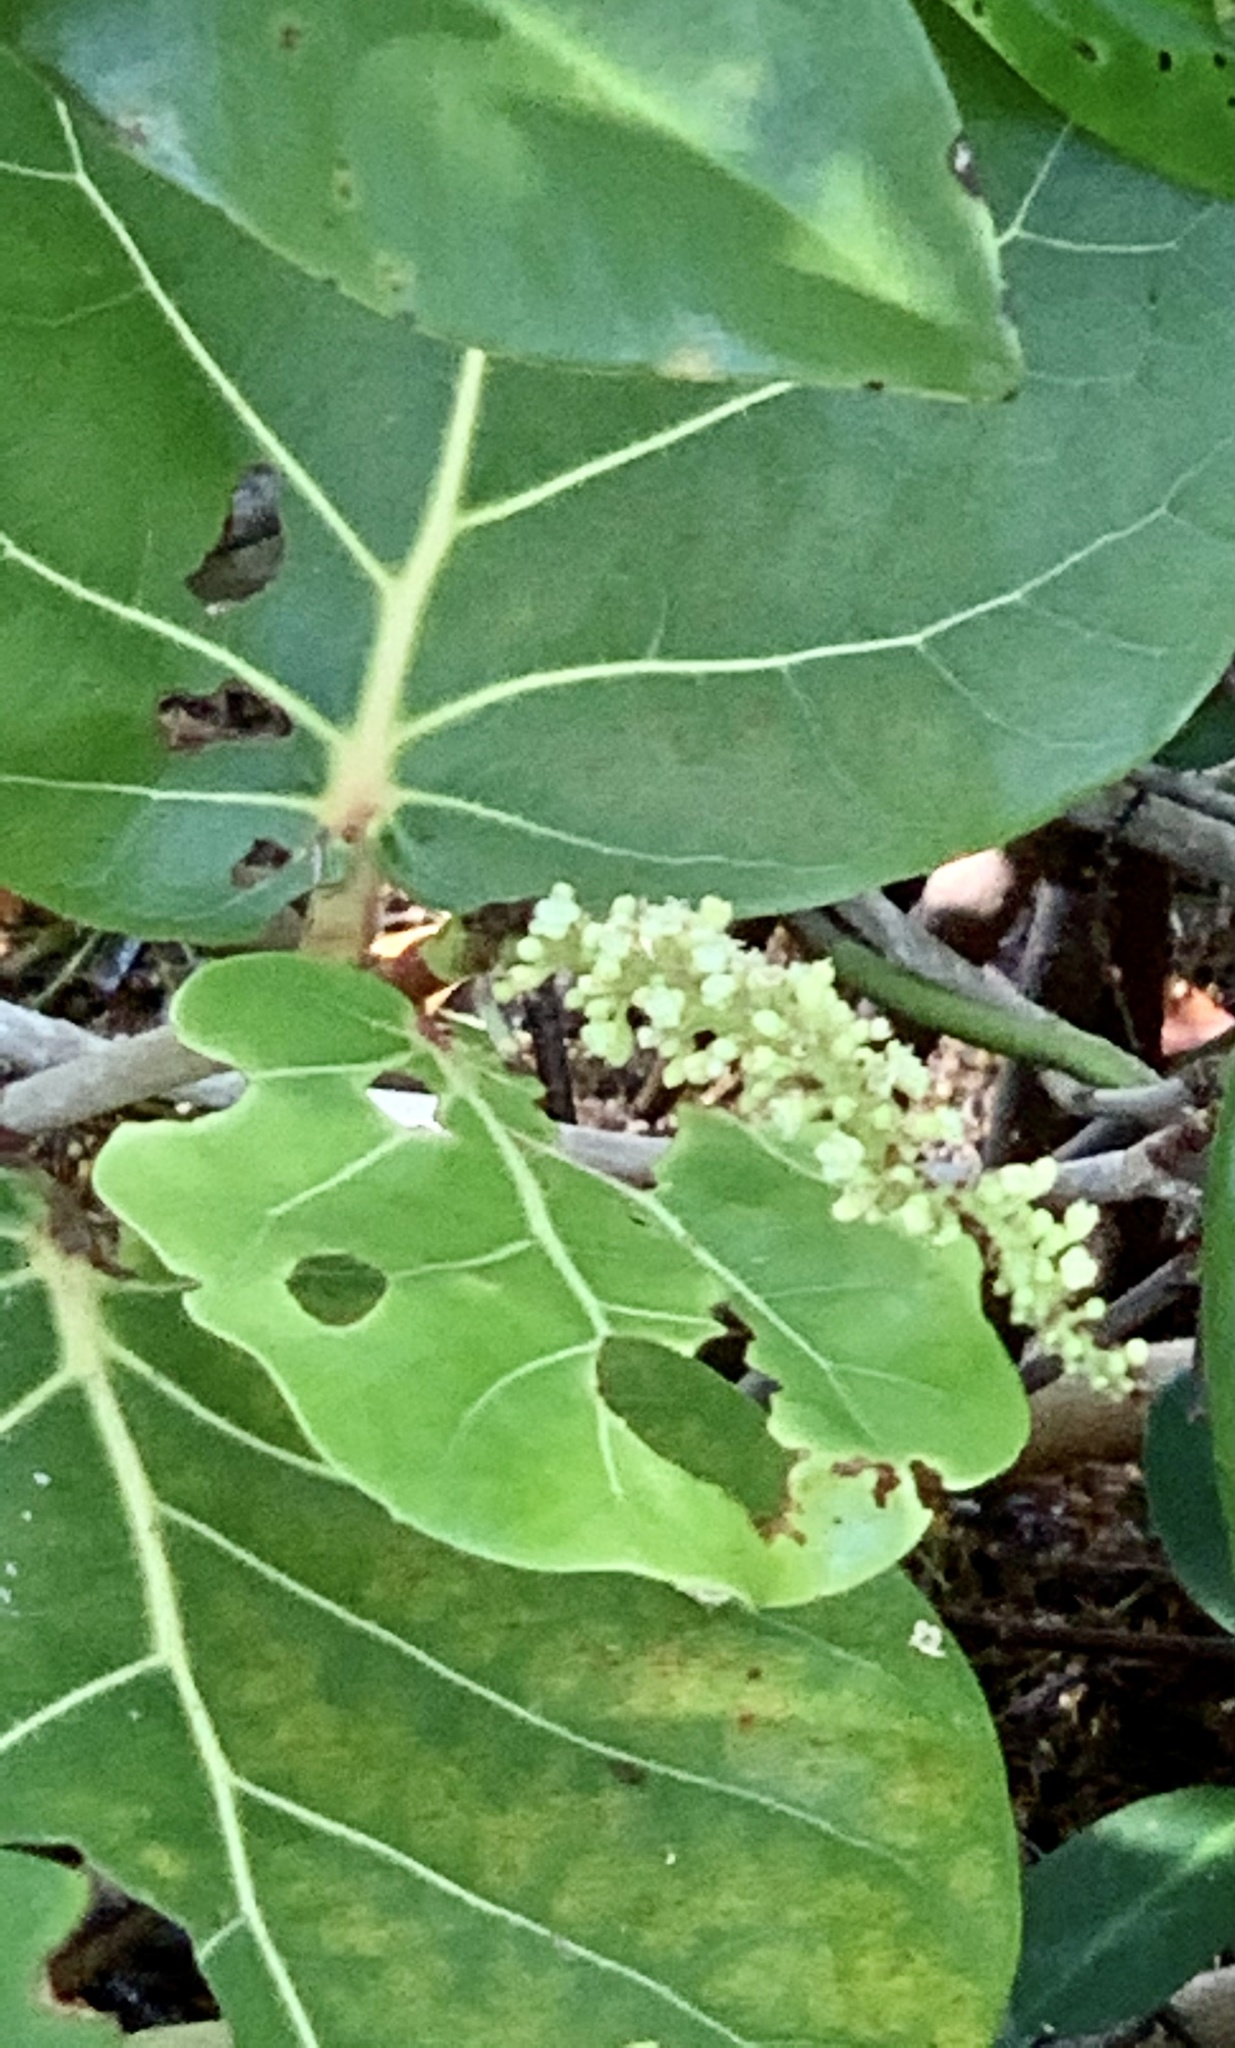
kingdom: Plantae
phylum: Tracheophyta
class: Magnoliopsida
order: Caryophyllales
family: Polygonaceae
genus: Coccoloba
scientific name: Coccoloba uvifera
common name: Seagrape
